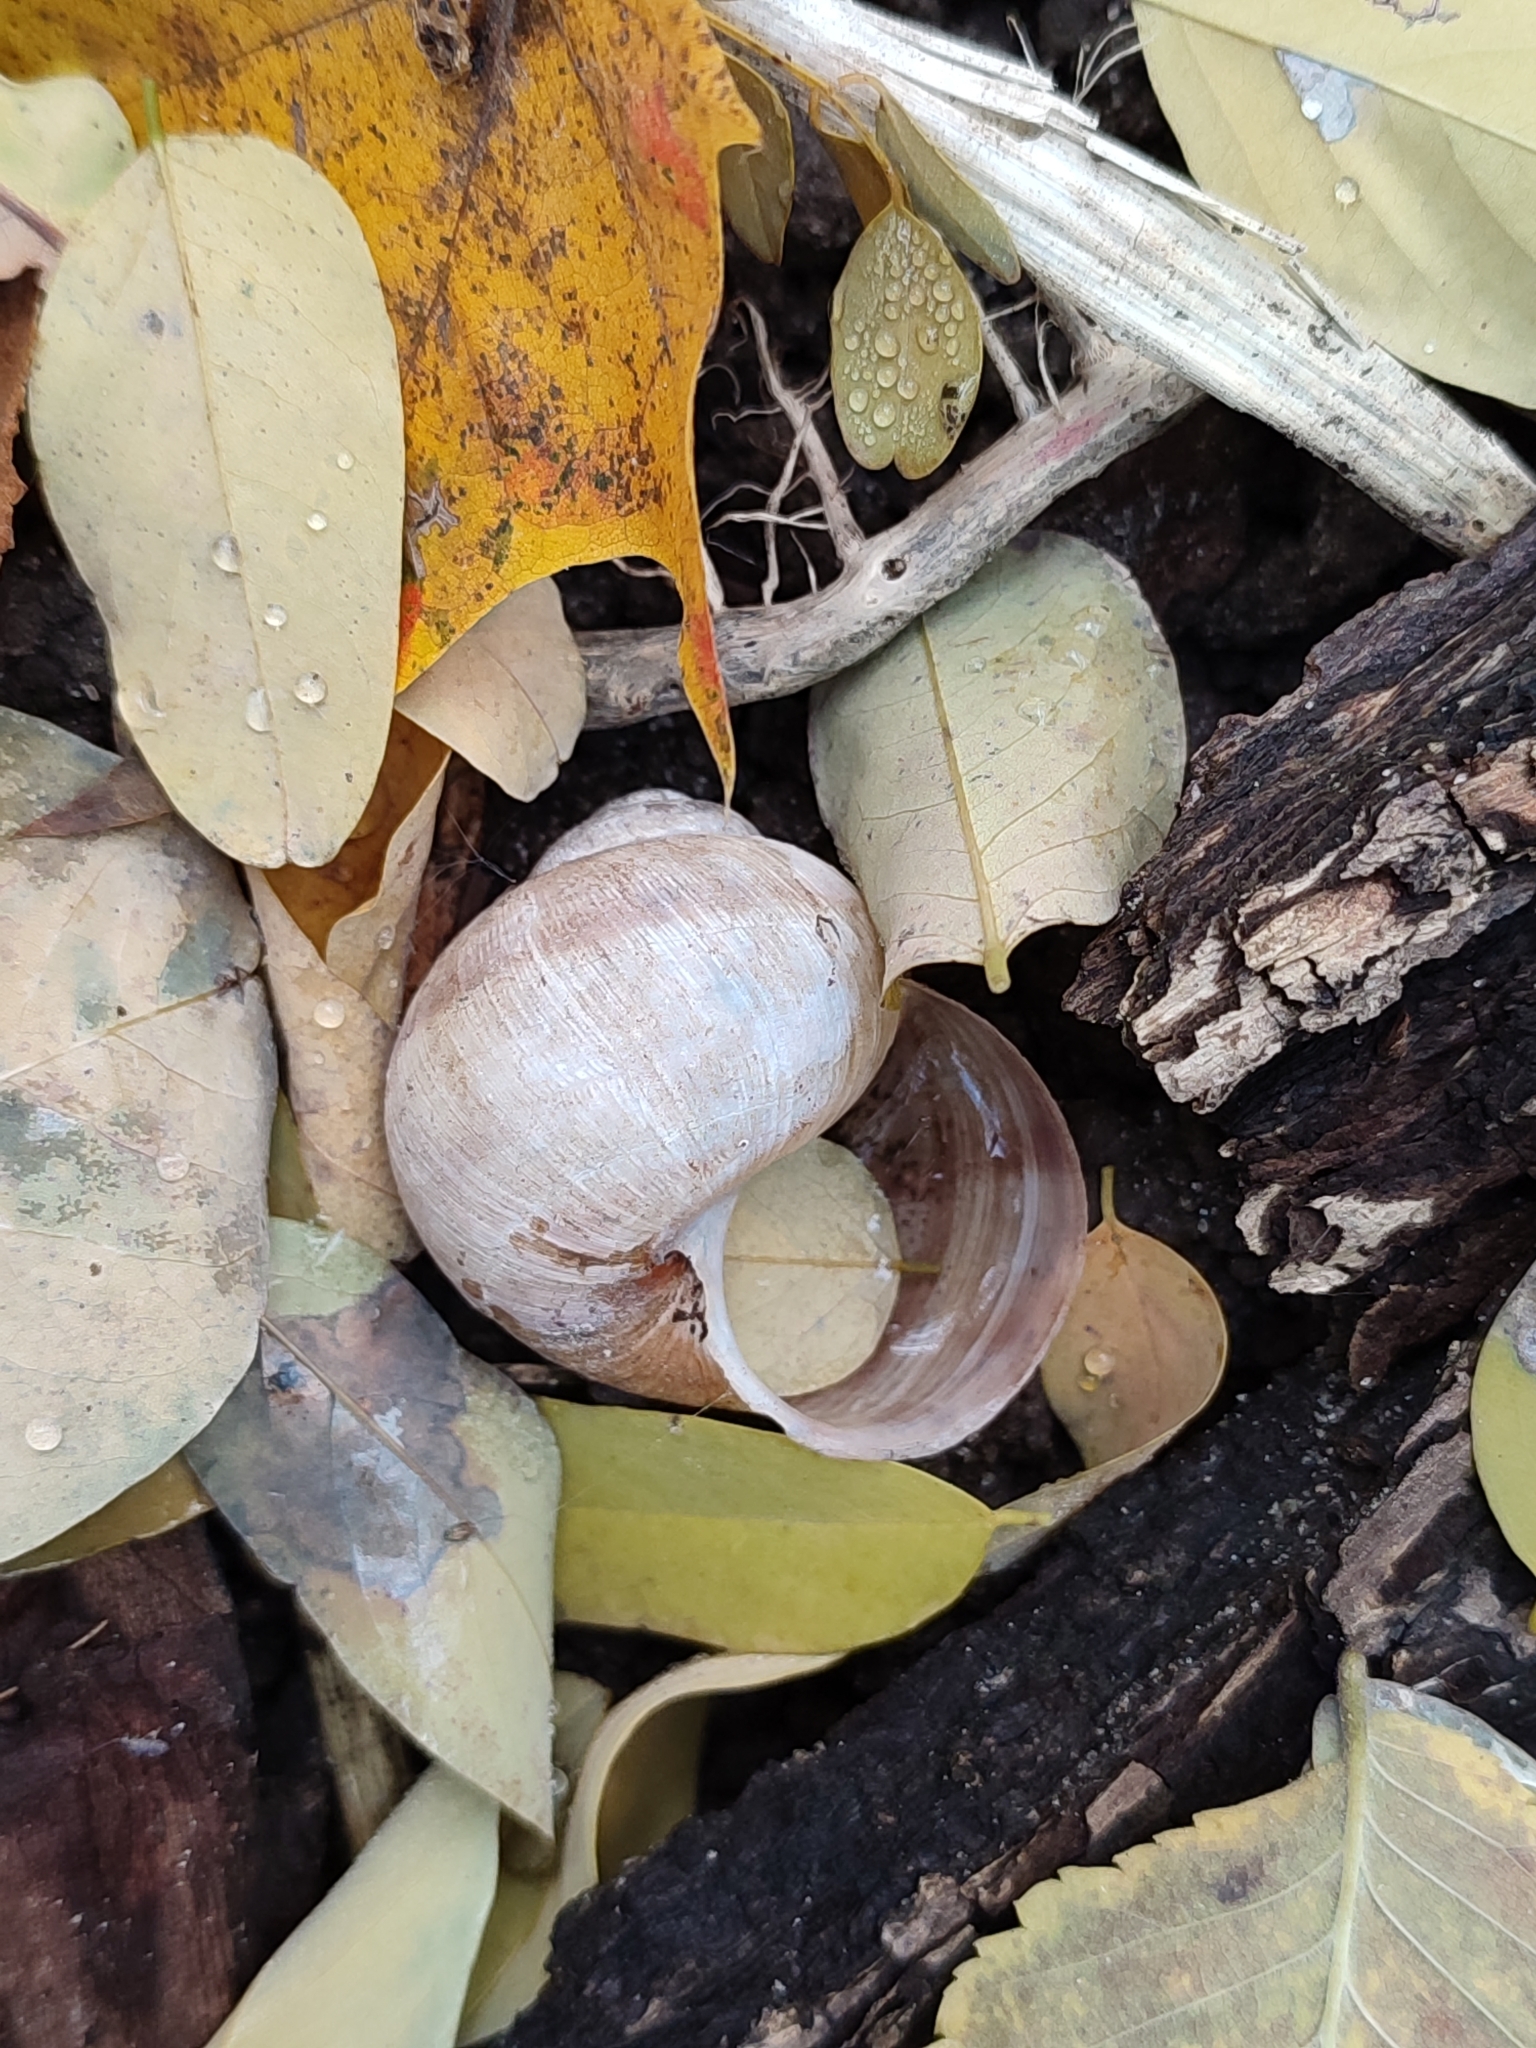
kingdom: Animalia
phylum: Mollusca
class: Gastropoda
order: Stylommatophora
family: Helicidae
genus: Helix
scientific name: Helix pomatia
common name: Roman snail
